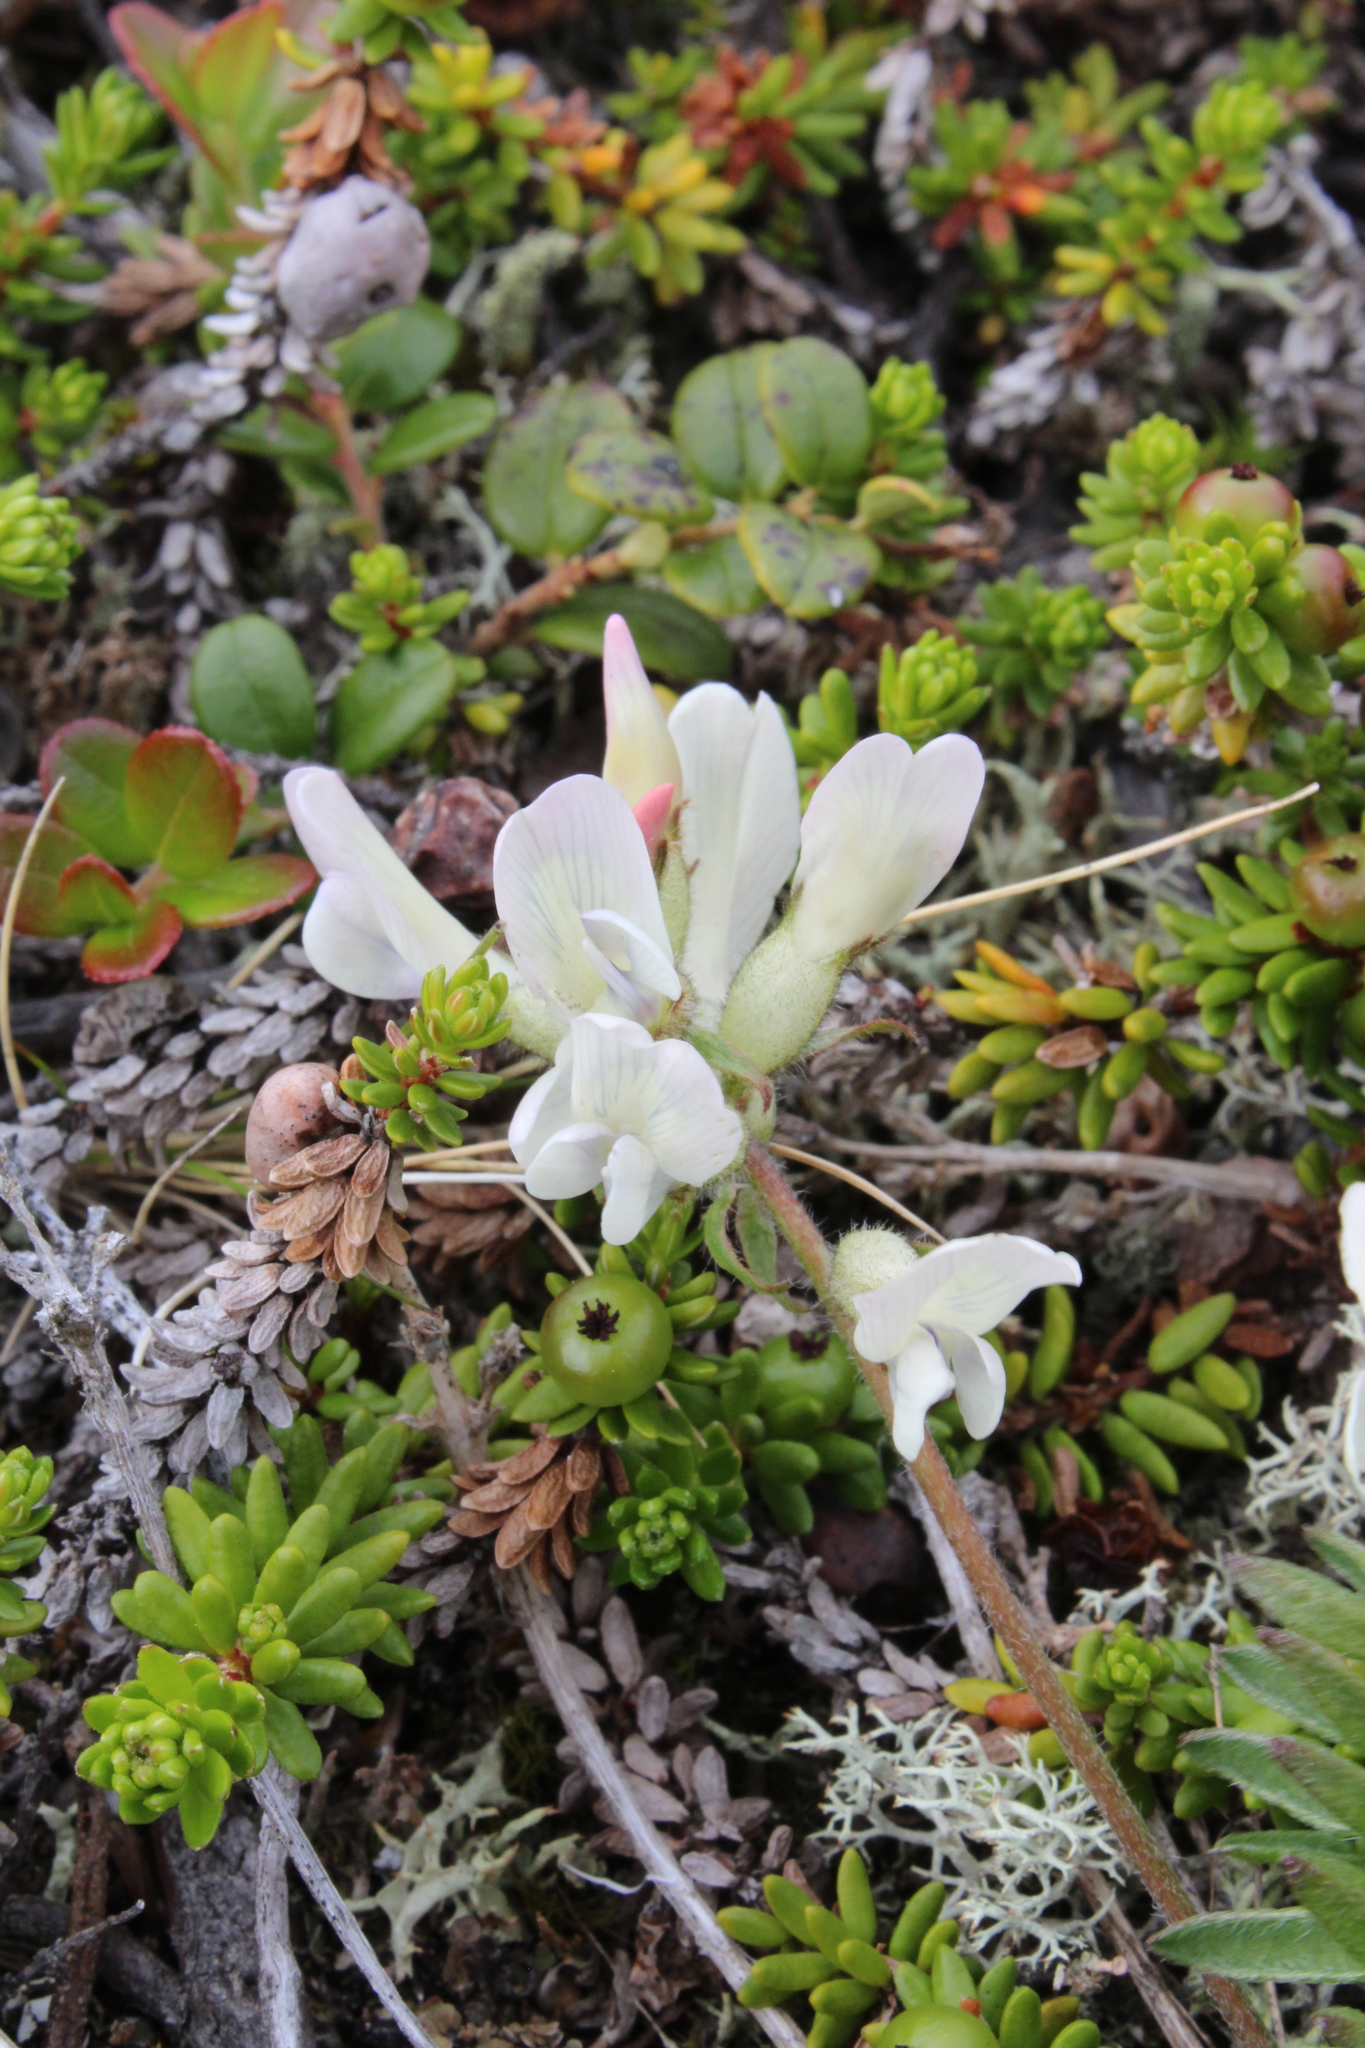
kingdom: Plantae
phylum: Tracheophyta
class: Magnoliopsida
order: Fabales
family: Fabaceae
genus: Oxytropis
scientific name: Oxytropis sordida
